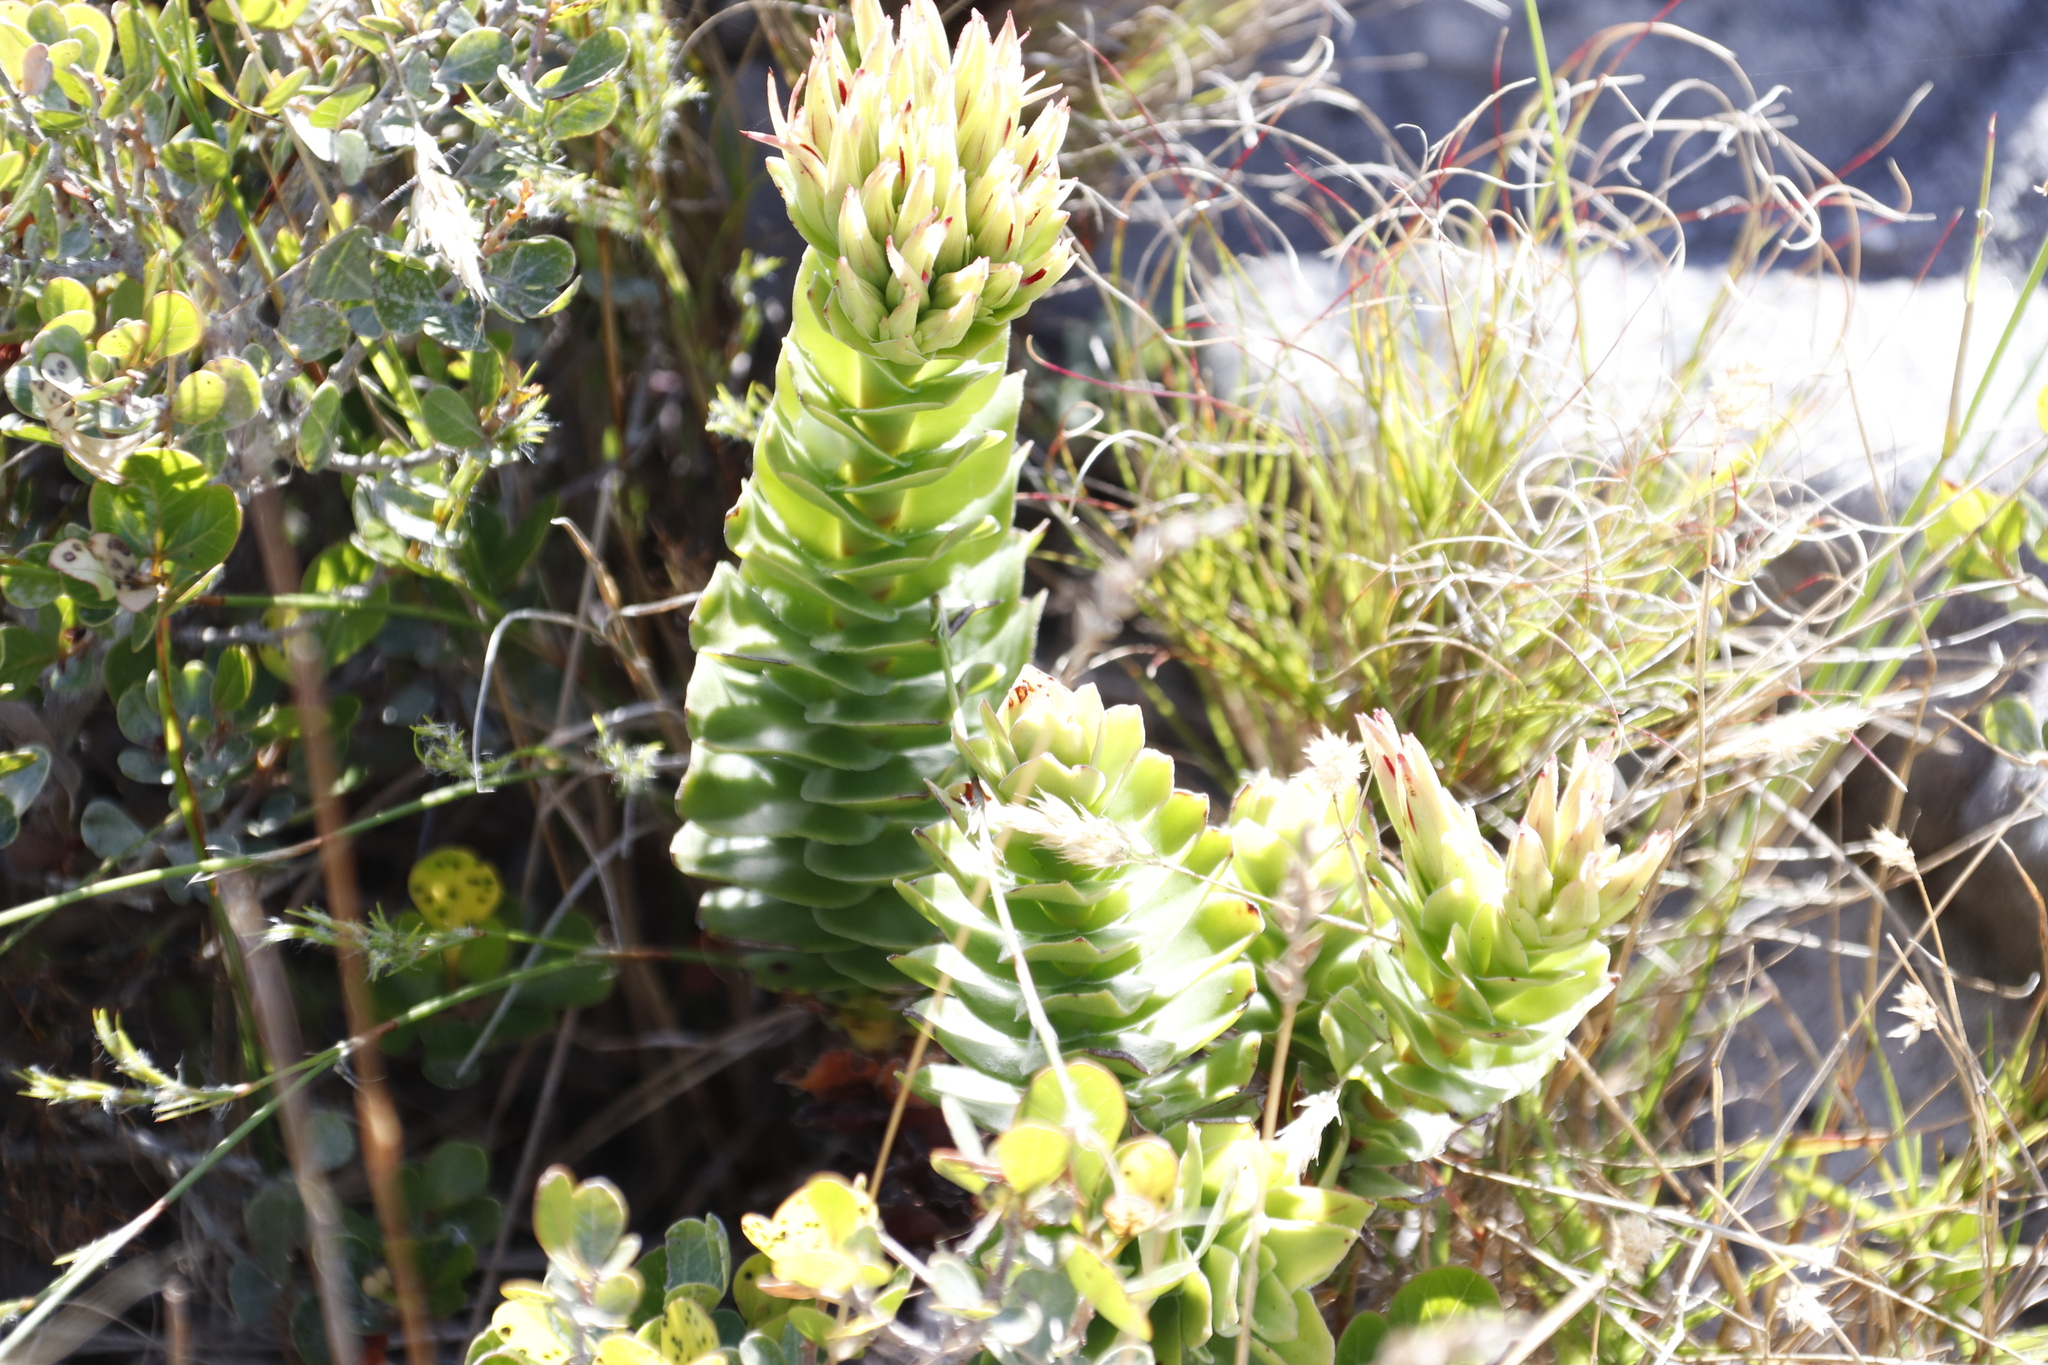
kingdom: Plantae
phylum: Tracheophyta
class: Magnoliopsida
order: Saxifragales
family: Crassulaceae
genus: Crassula
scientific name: Crassula coccinea
